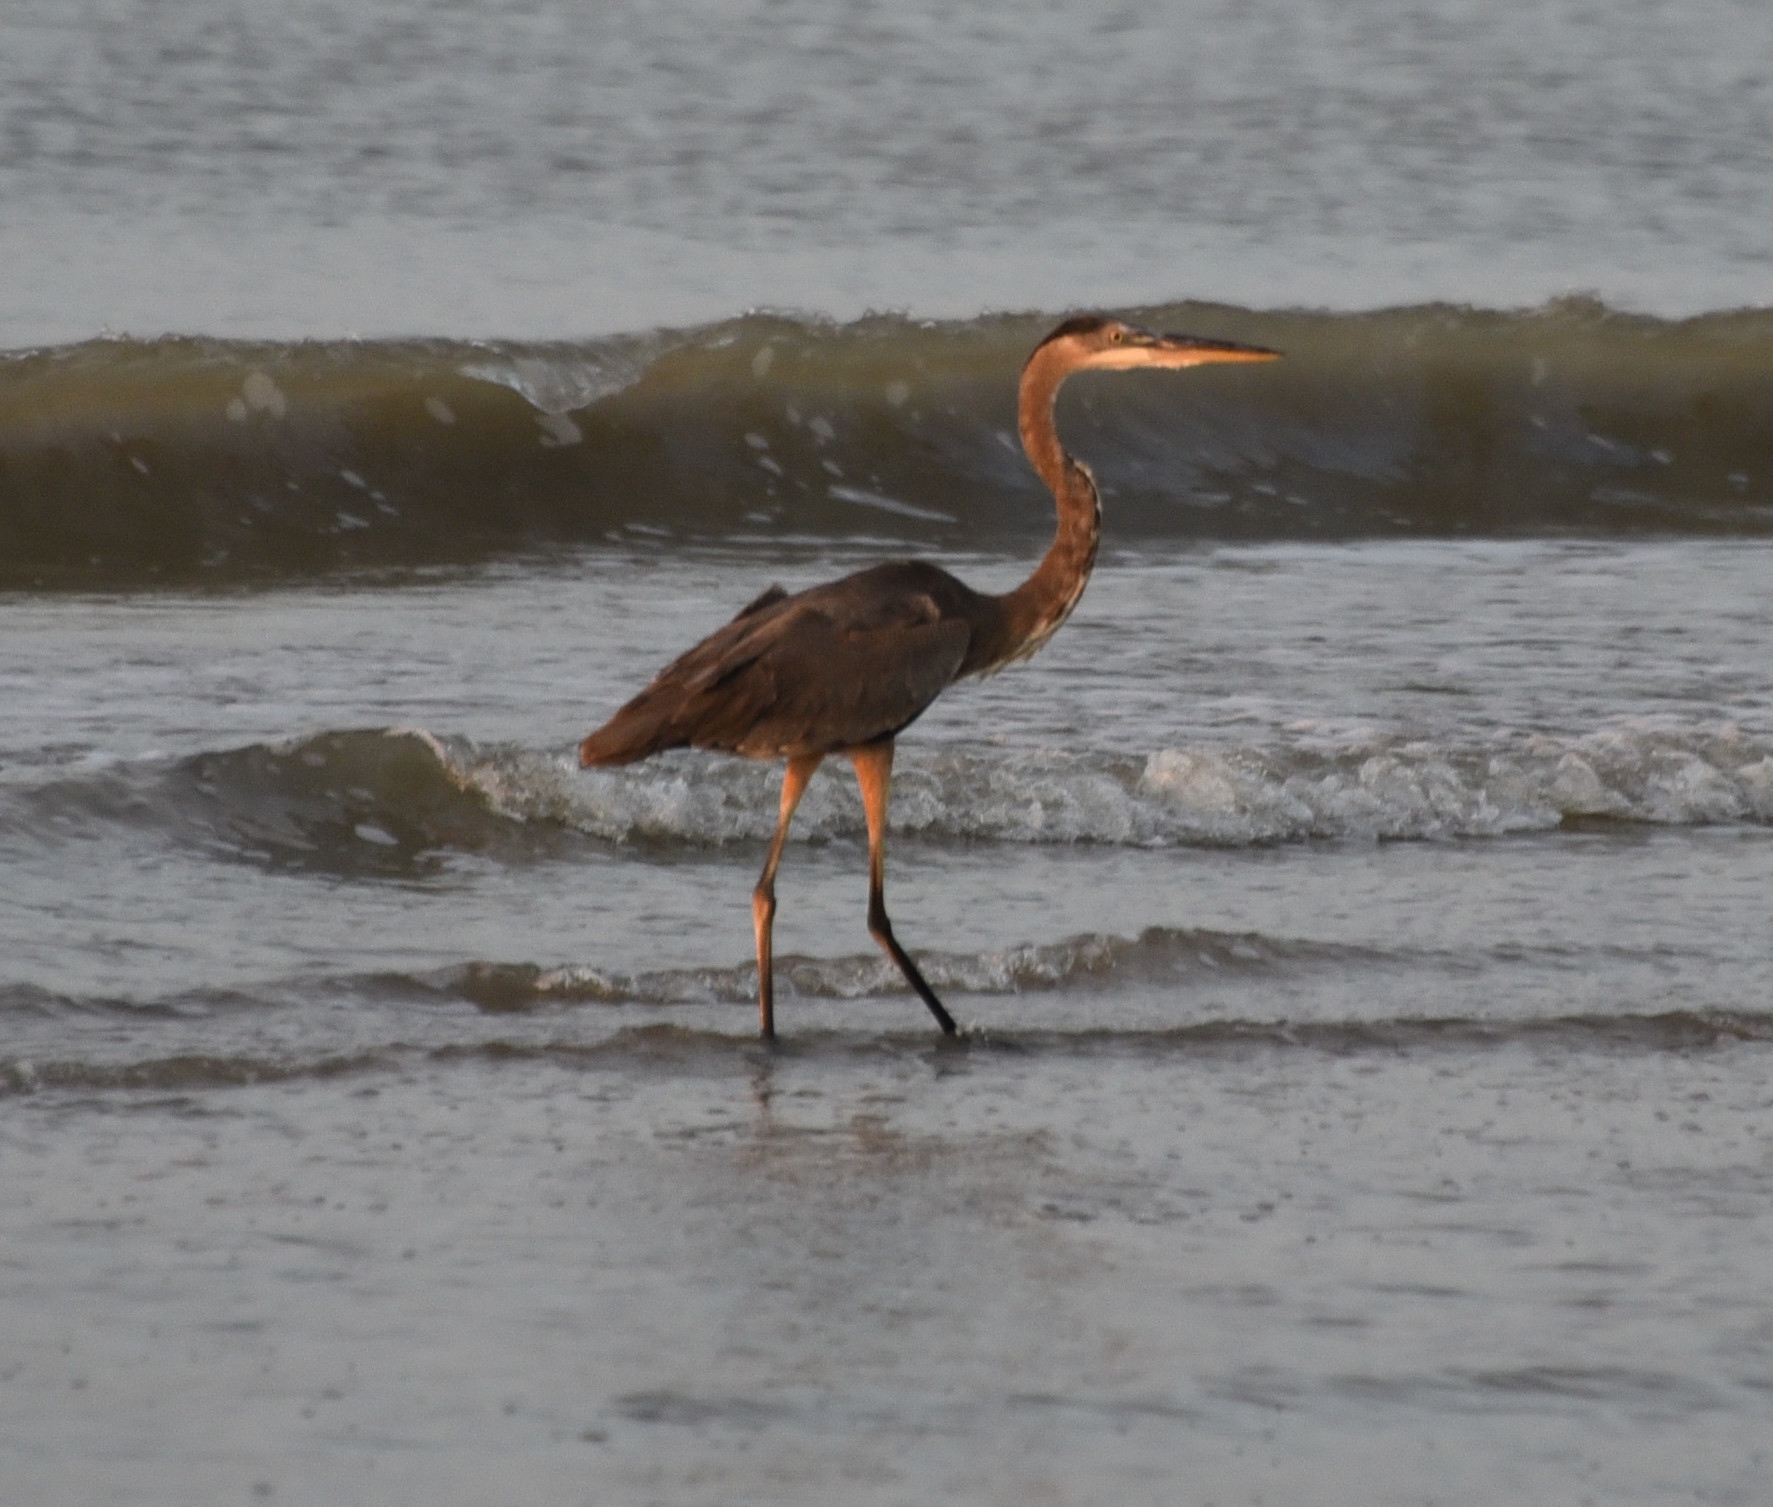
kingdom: Animalia
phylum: Chordata
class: Aves
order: Pelecaniformes
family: Ardeidae
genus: Ardea
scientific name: Ardea herodias
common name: Great blue heron
